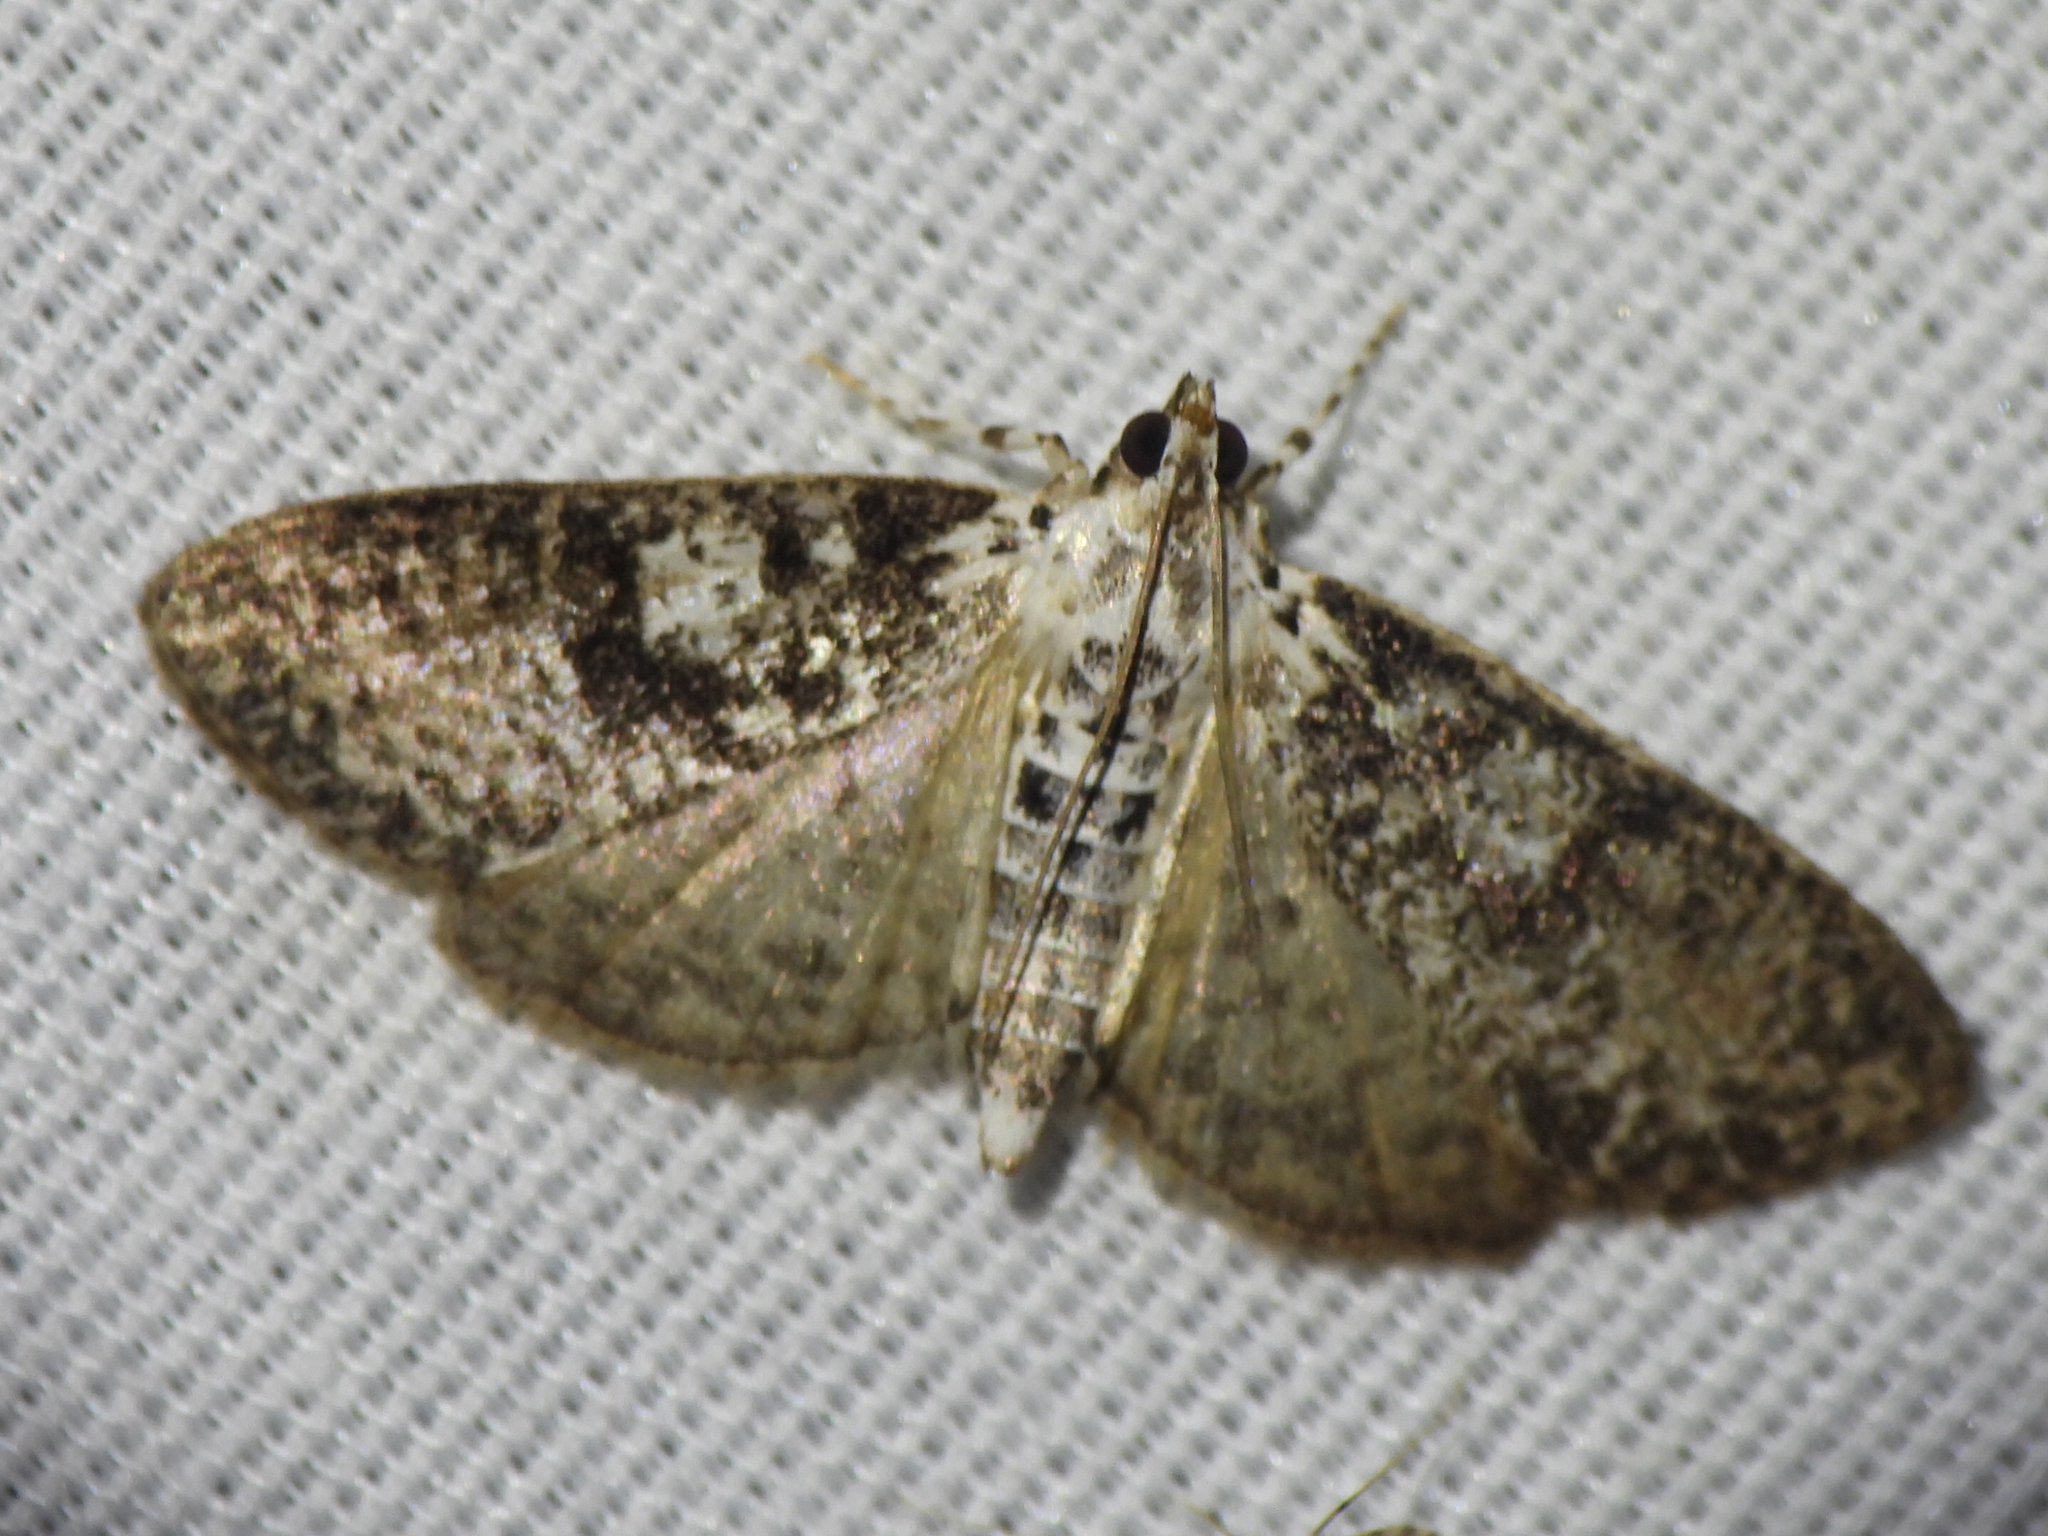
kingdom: Animalia
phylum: Arthropoda
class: Insecta
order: Lepidoptera
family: Crambidae
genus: Palpita
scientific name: Palpita magniferalis
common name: Splendid palpita moth
